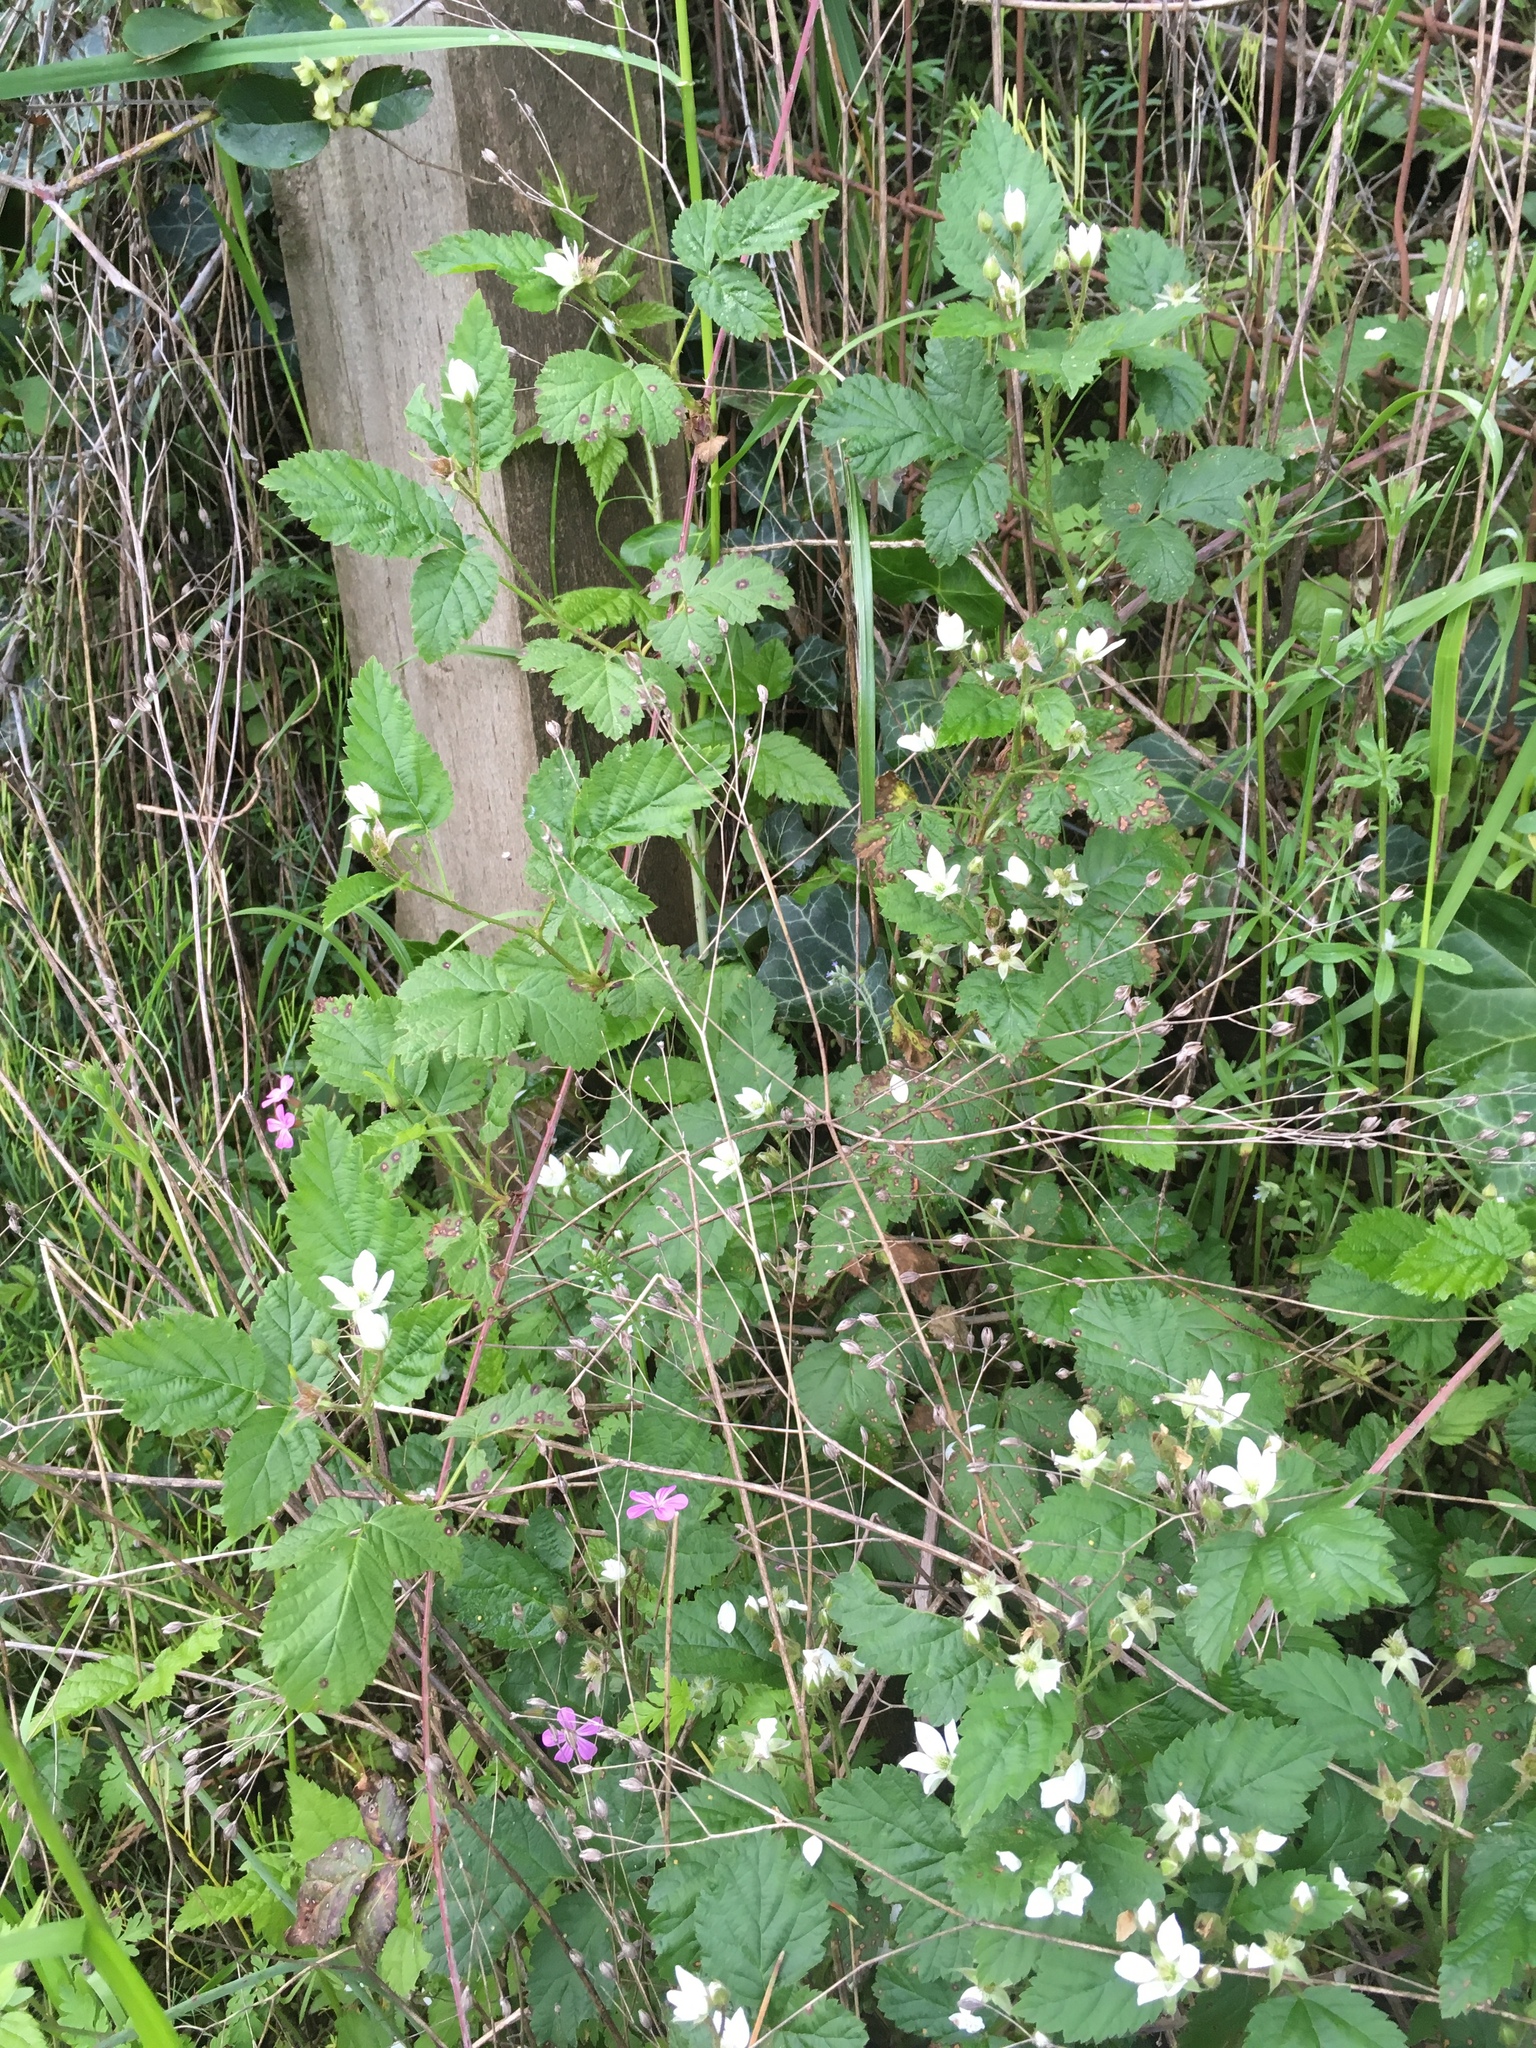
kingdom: Plantae
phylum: Tracheophyta
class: Magnoliopsida
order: Rosales
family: Rosaceae
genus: Rubus
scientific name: Rubus ursinus
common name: Pacific blackberry
